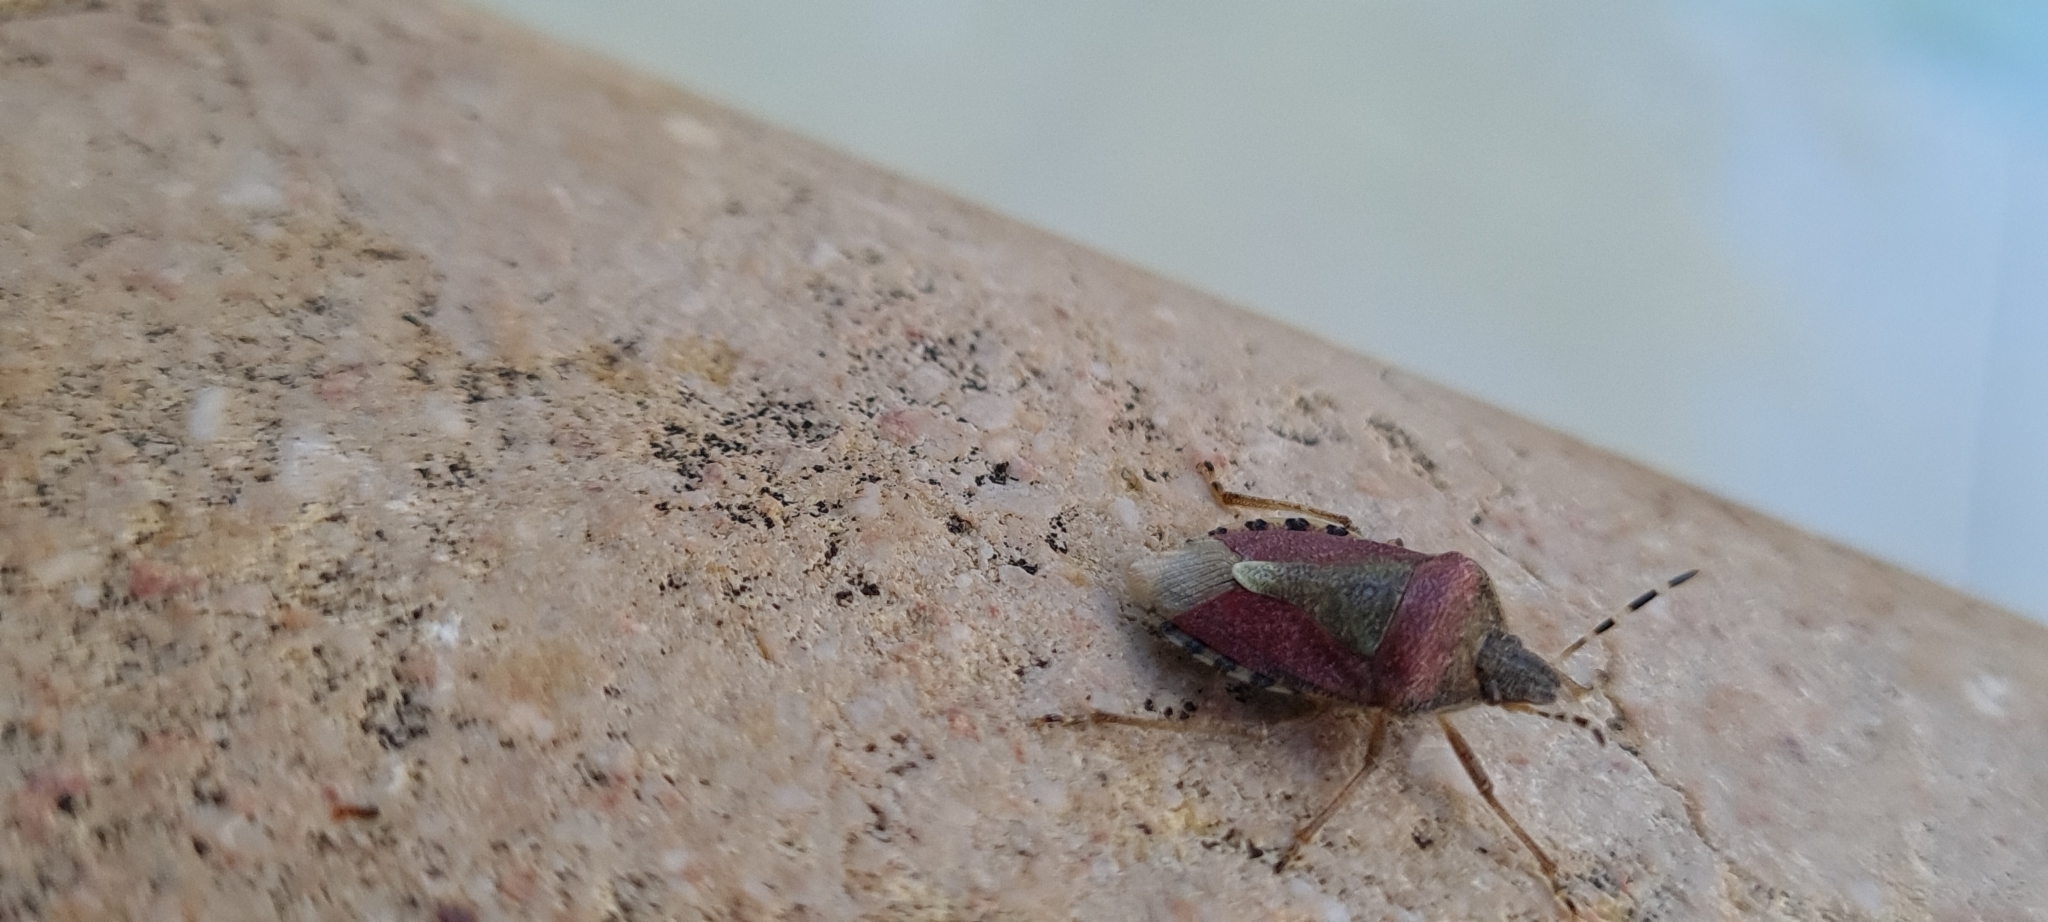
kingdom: Animalia
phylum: Arthropoda
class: Insecta
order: Hemiptera
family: Pentatomidae
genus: Dolycoris
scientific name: Dolycoris baccarum
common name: Sloe bug
